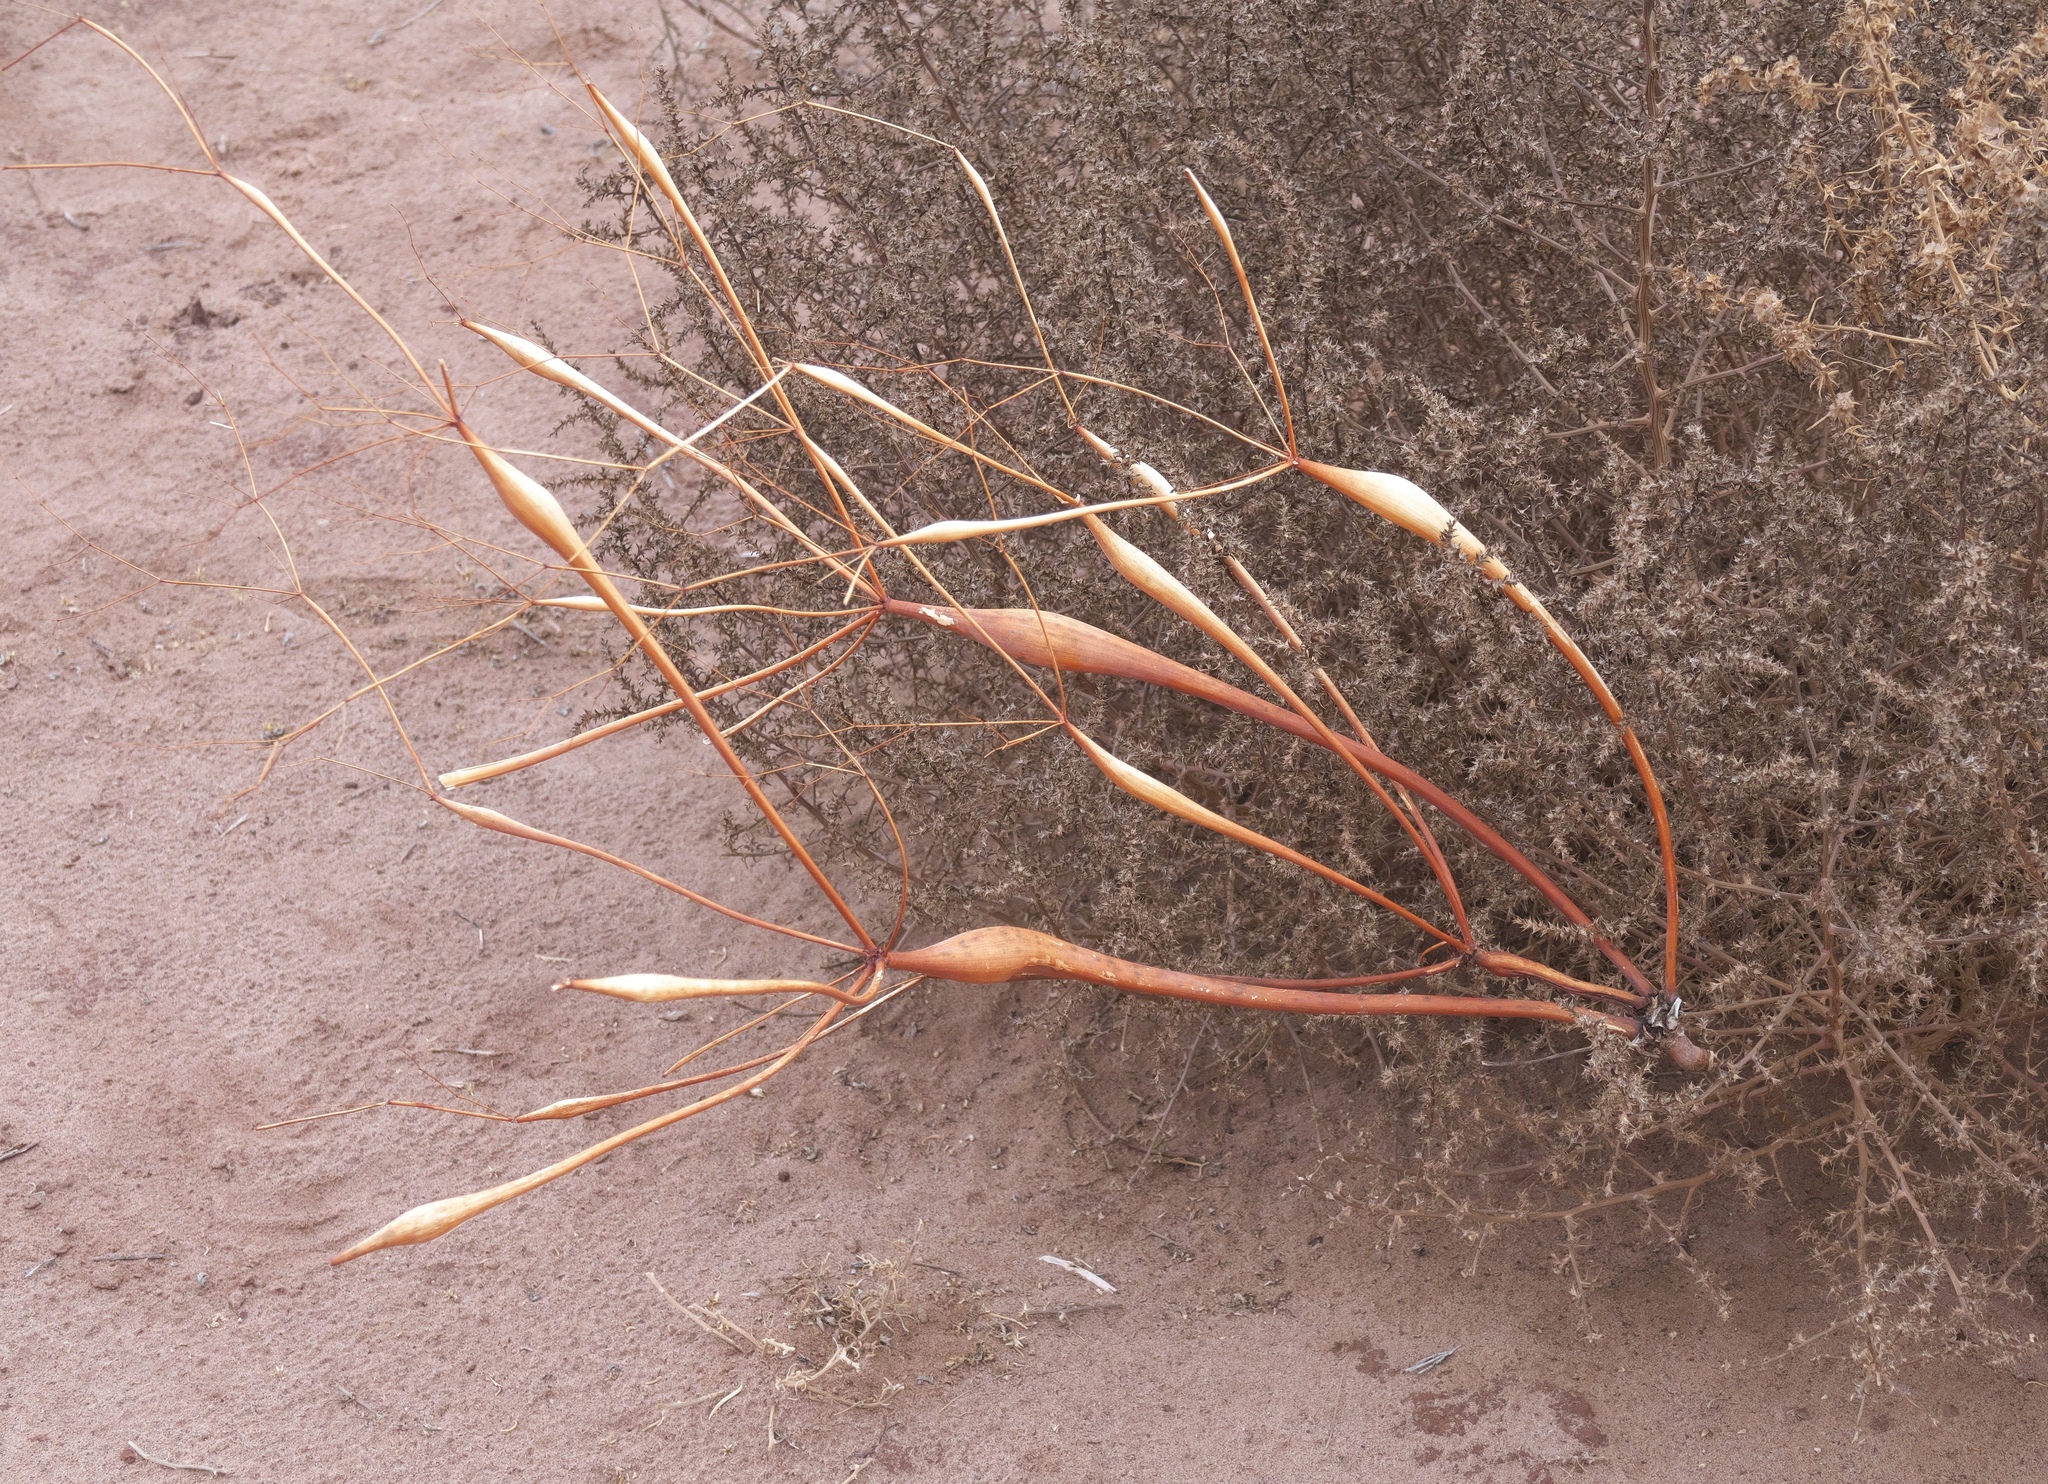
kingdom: Plantae
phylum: Tracheophyta
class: Magnoliopsida
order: Caryophyllales
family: Polygonaceae
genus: Eriogonum
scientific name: Eriogonum inflatum
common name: Desert trumpet
